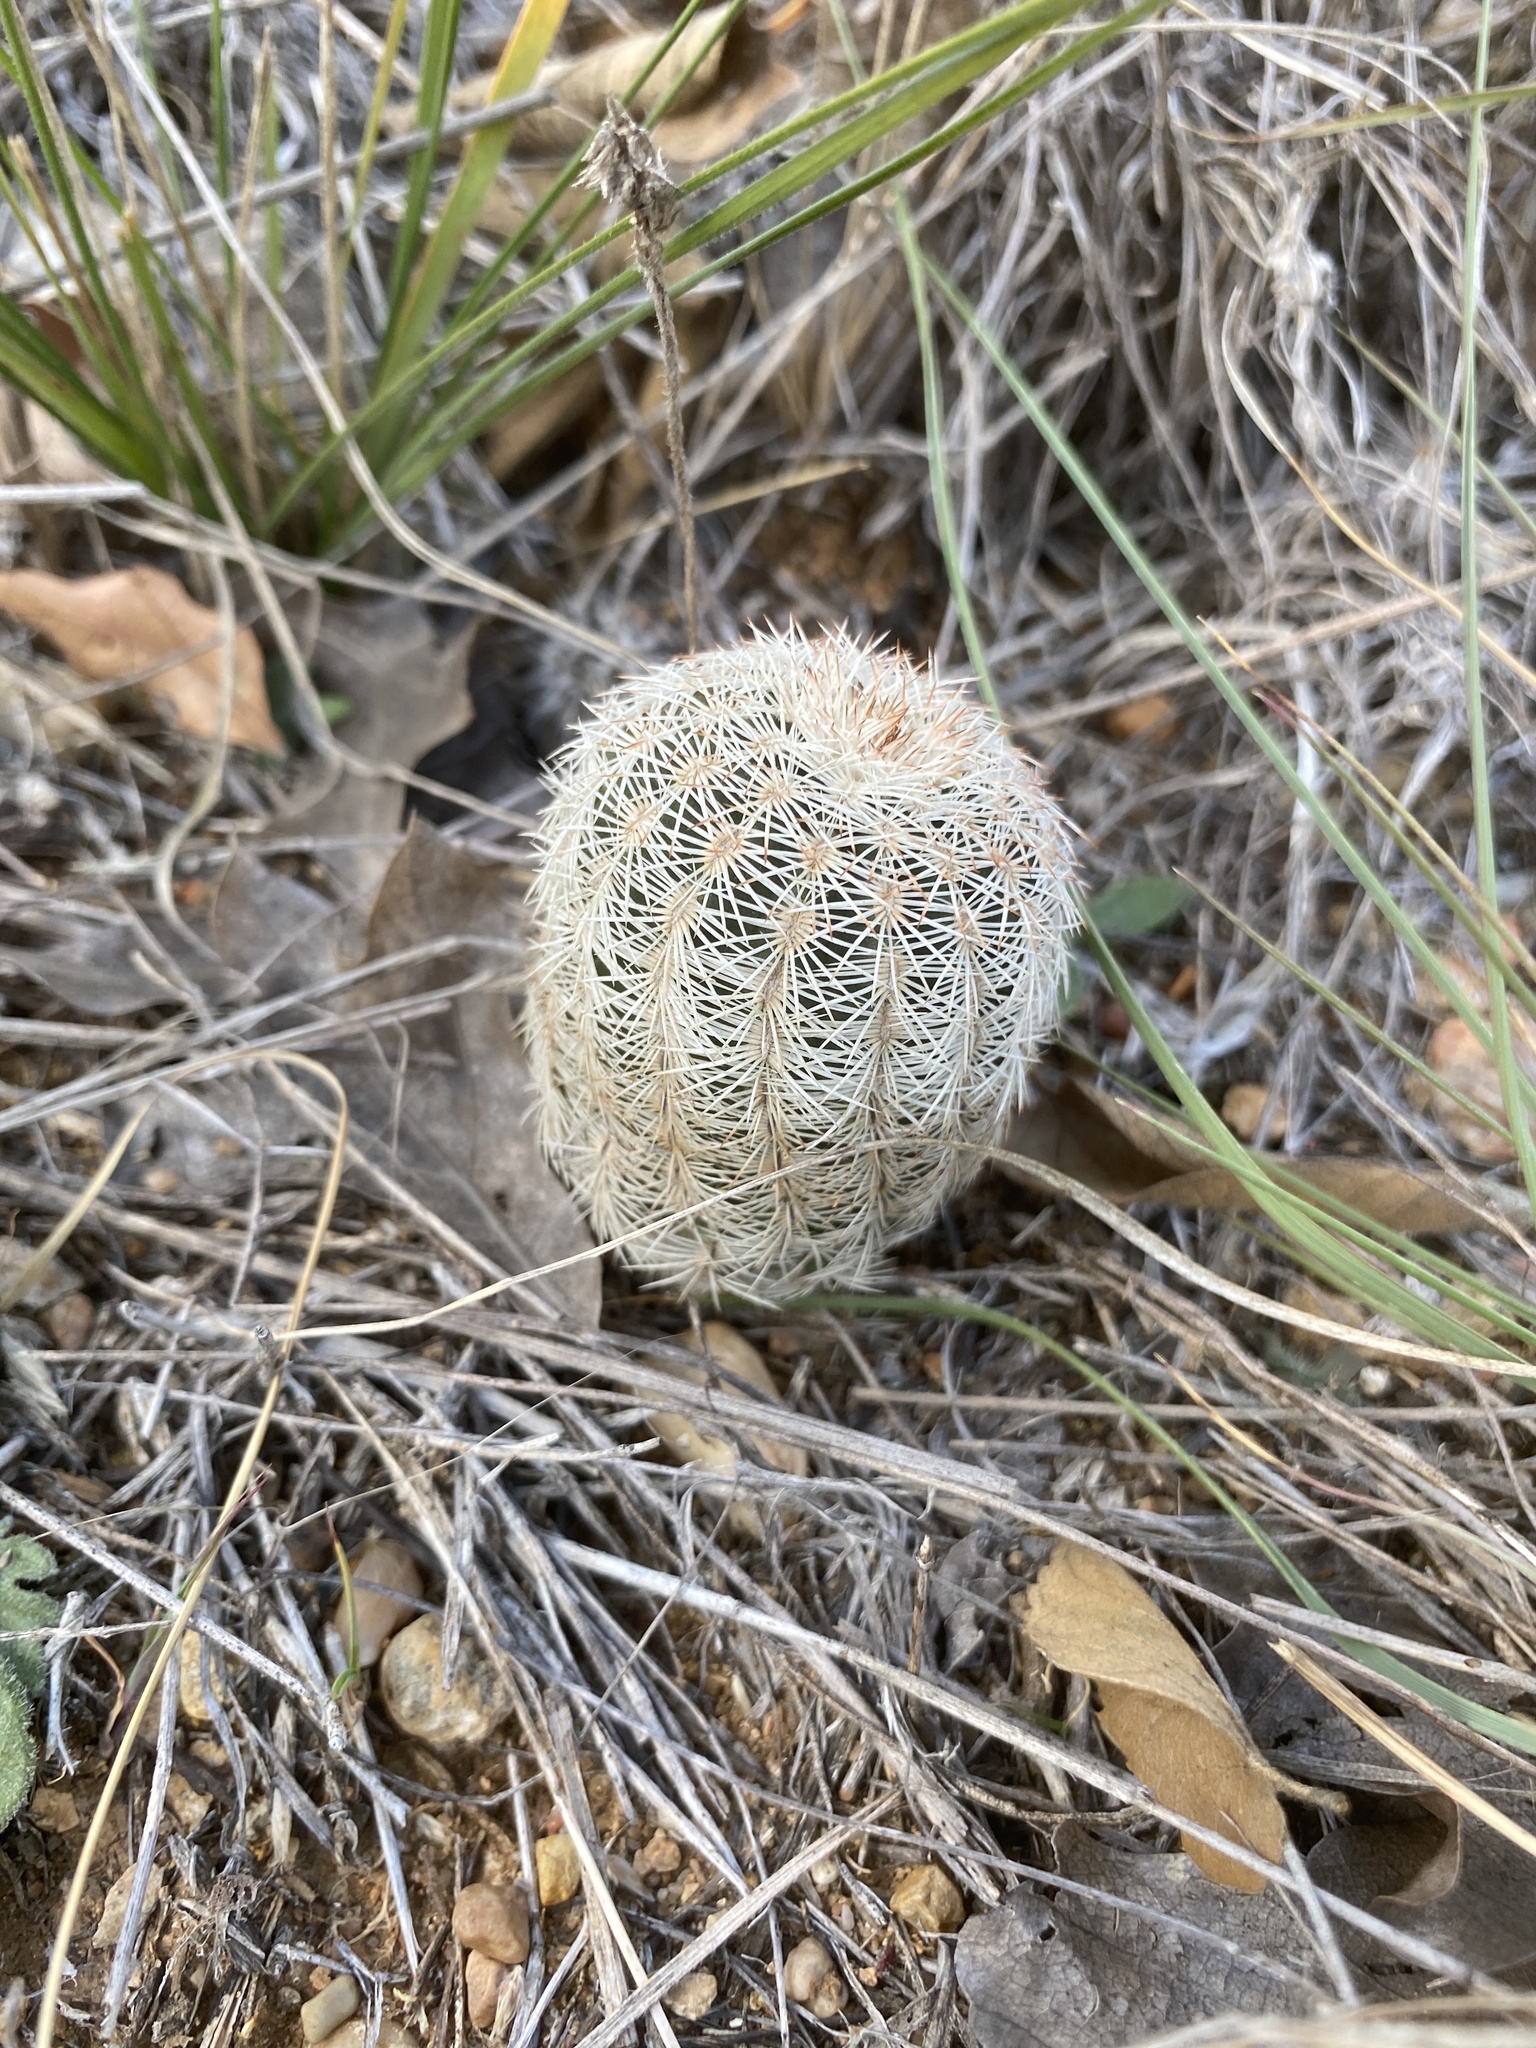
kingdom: Plantae
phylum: Tracheophyta
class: Magnoliopsida
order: Caryophyllales
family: Cactaceae
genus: Echinocereus
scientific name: Echinocereus reichenbachii
